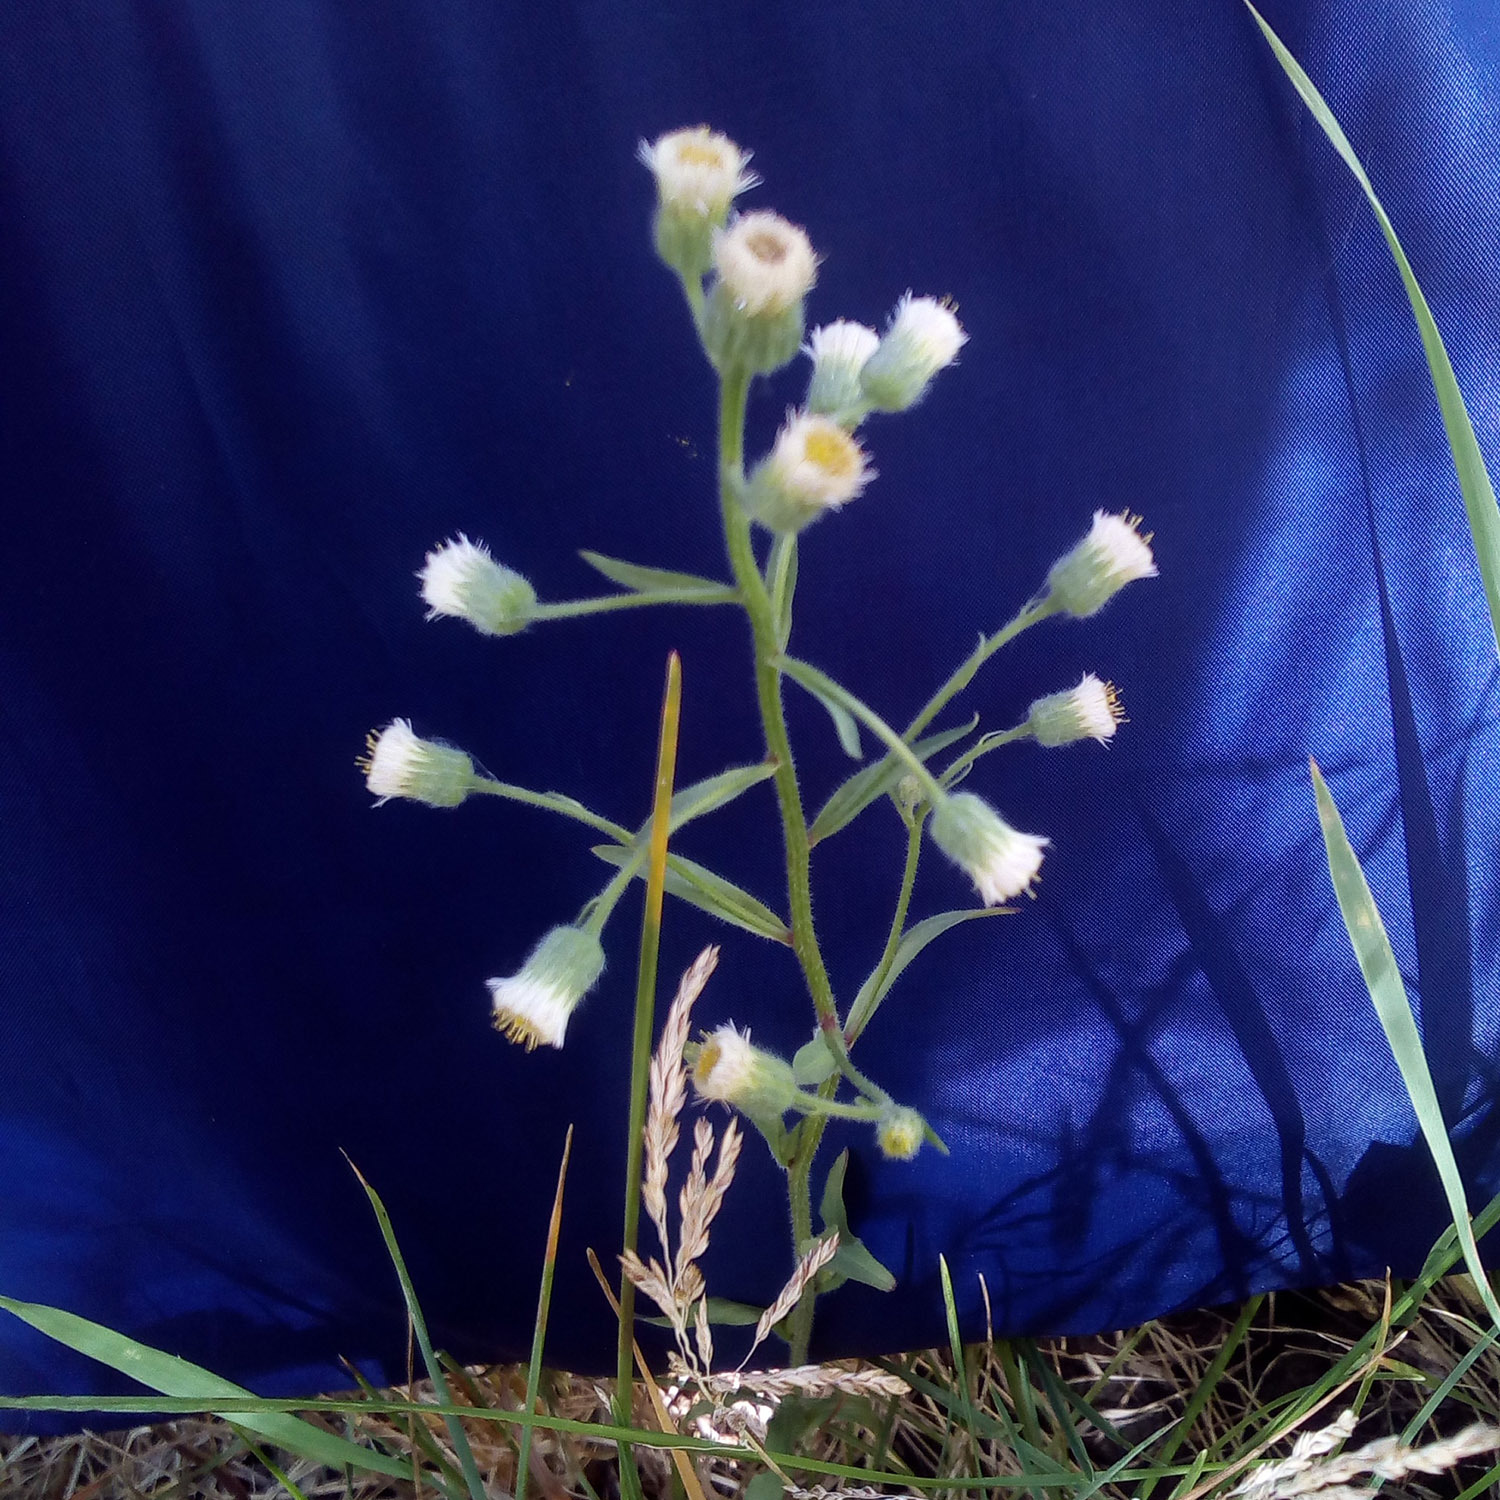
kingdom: Plantae
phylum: Tracheophyta
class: Magnoliopsida
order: Asterales
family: Asteraceae
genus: Erigeron
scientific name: Erigeron acris
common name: Blue fleabane
